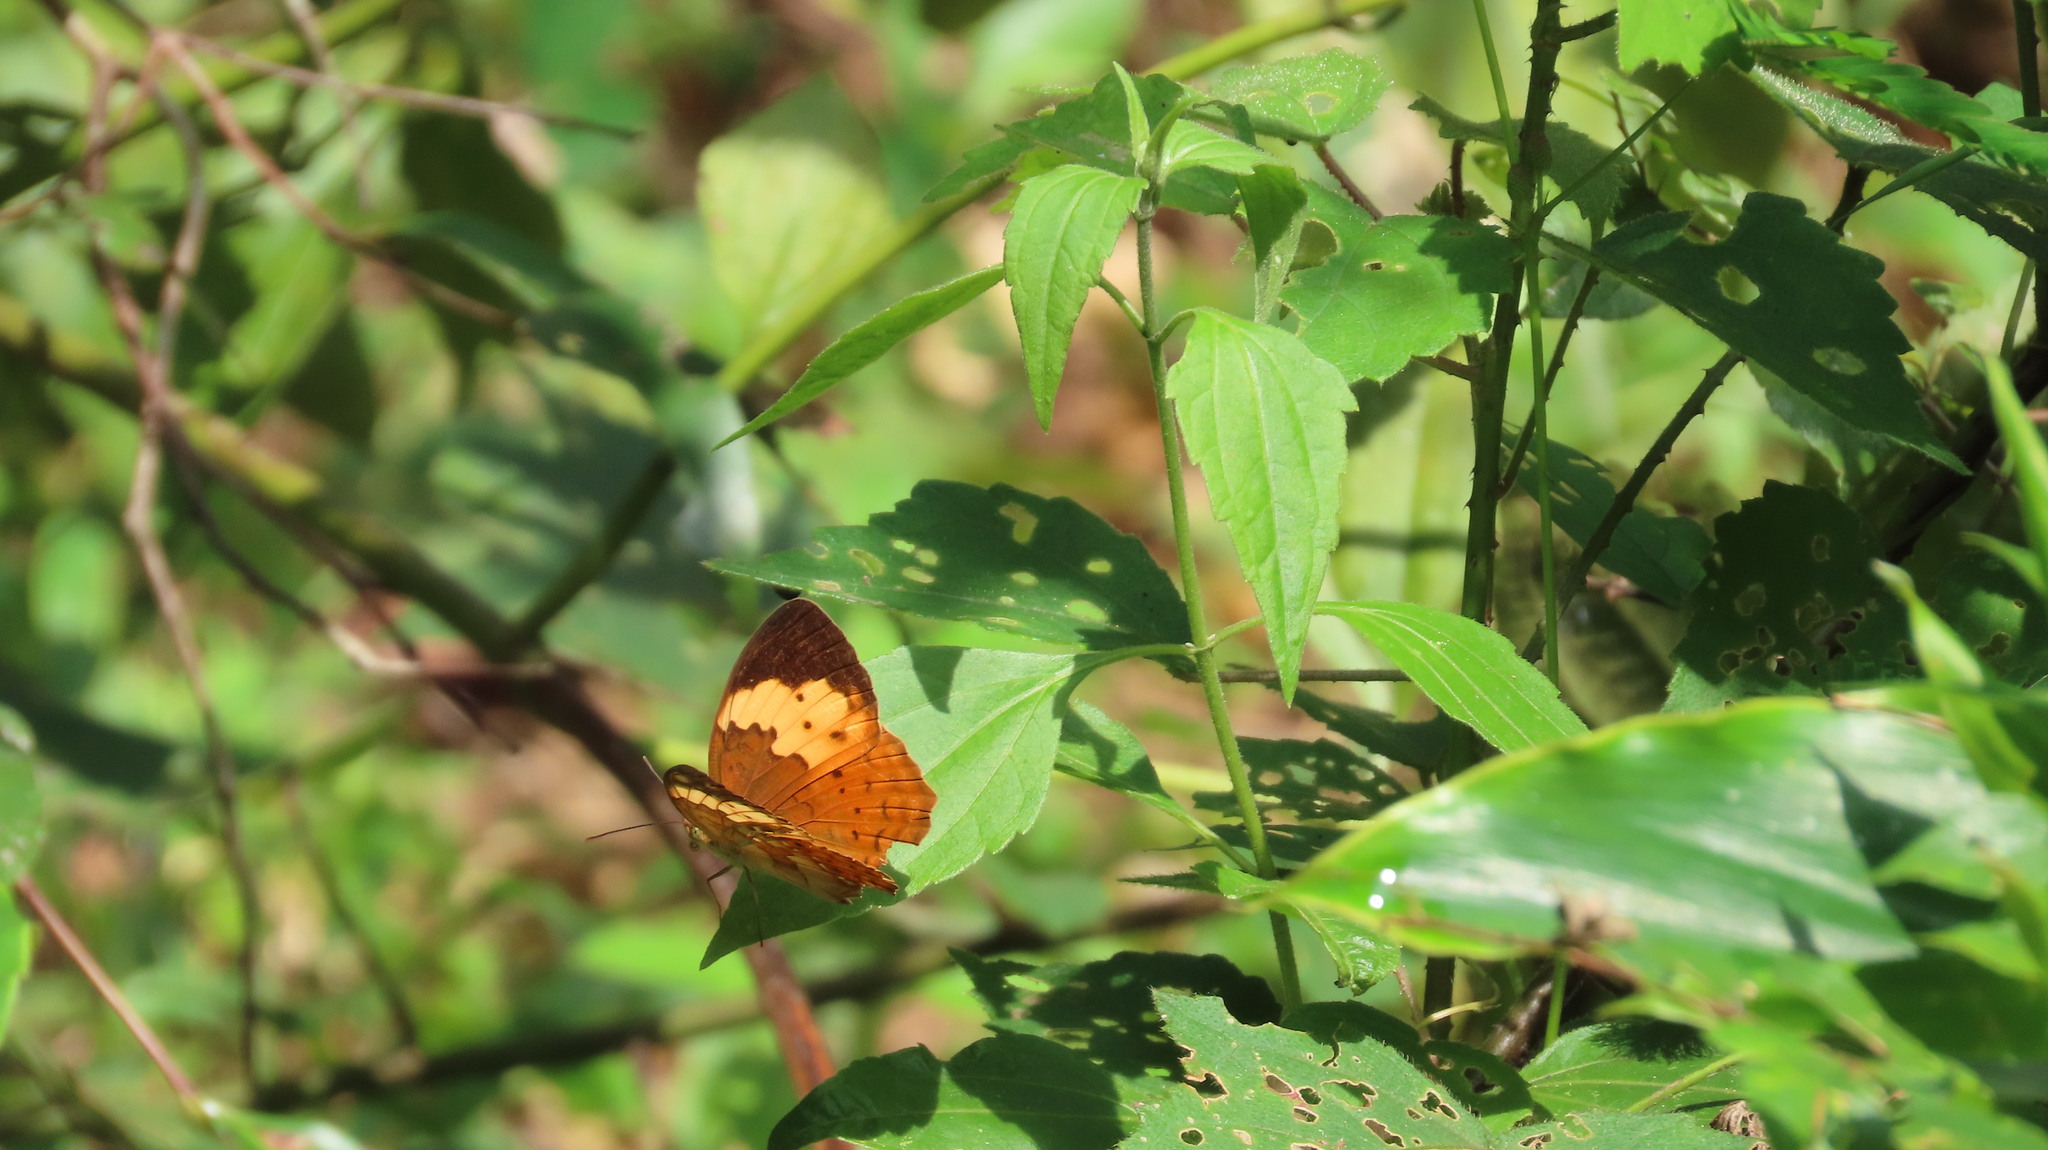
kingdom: Animalia
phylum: Arthropoda
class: Insecta
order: Lepidoptera
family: Nymphalidae
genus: Cupha
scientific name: Cupha erymanthis
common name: Rustic
